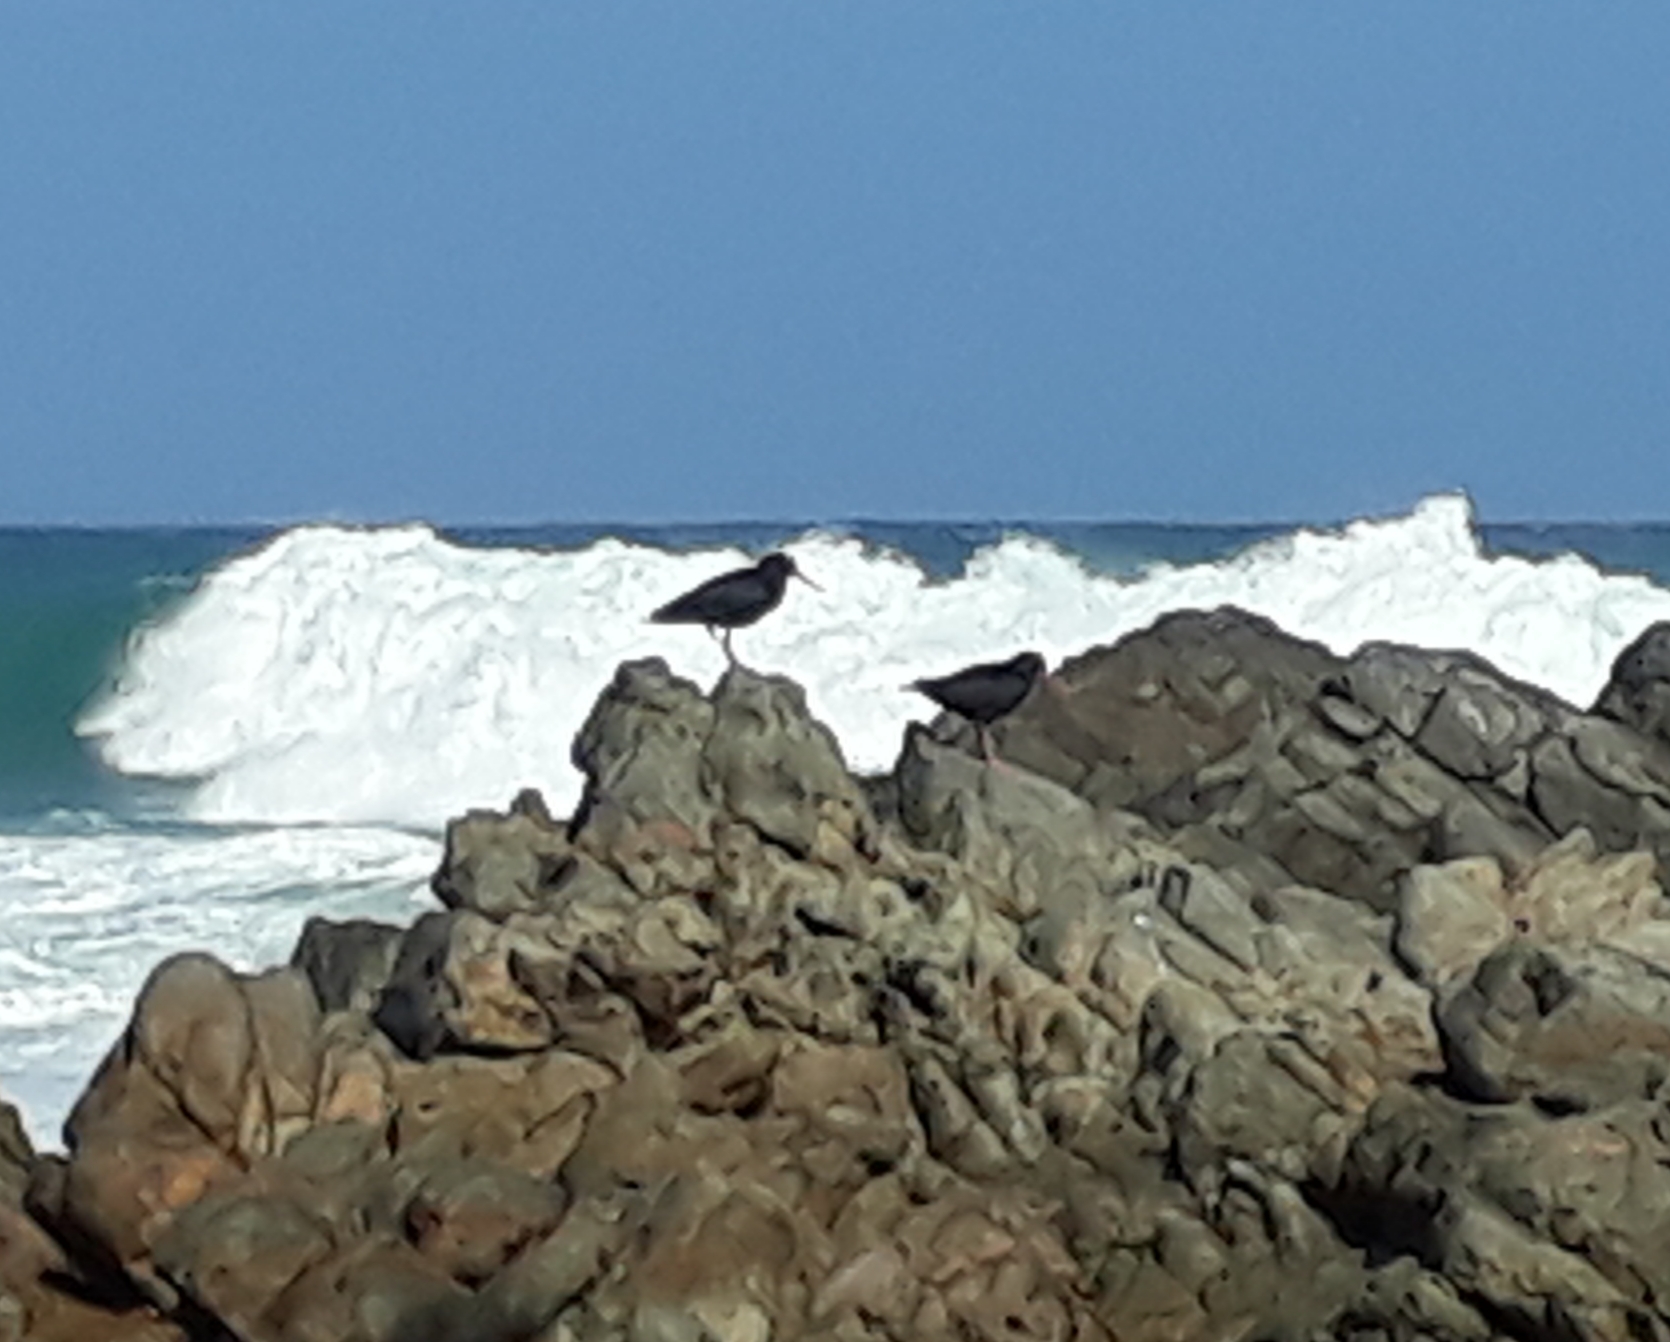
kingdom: Animalia
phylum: Chordata
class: Aves
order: Charadriiformes
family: Haematopodidae
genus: Haematopus
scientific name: Haematopus moquini
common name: African oystercatcher
